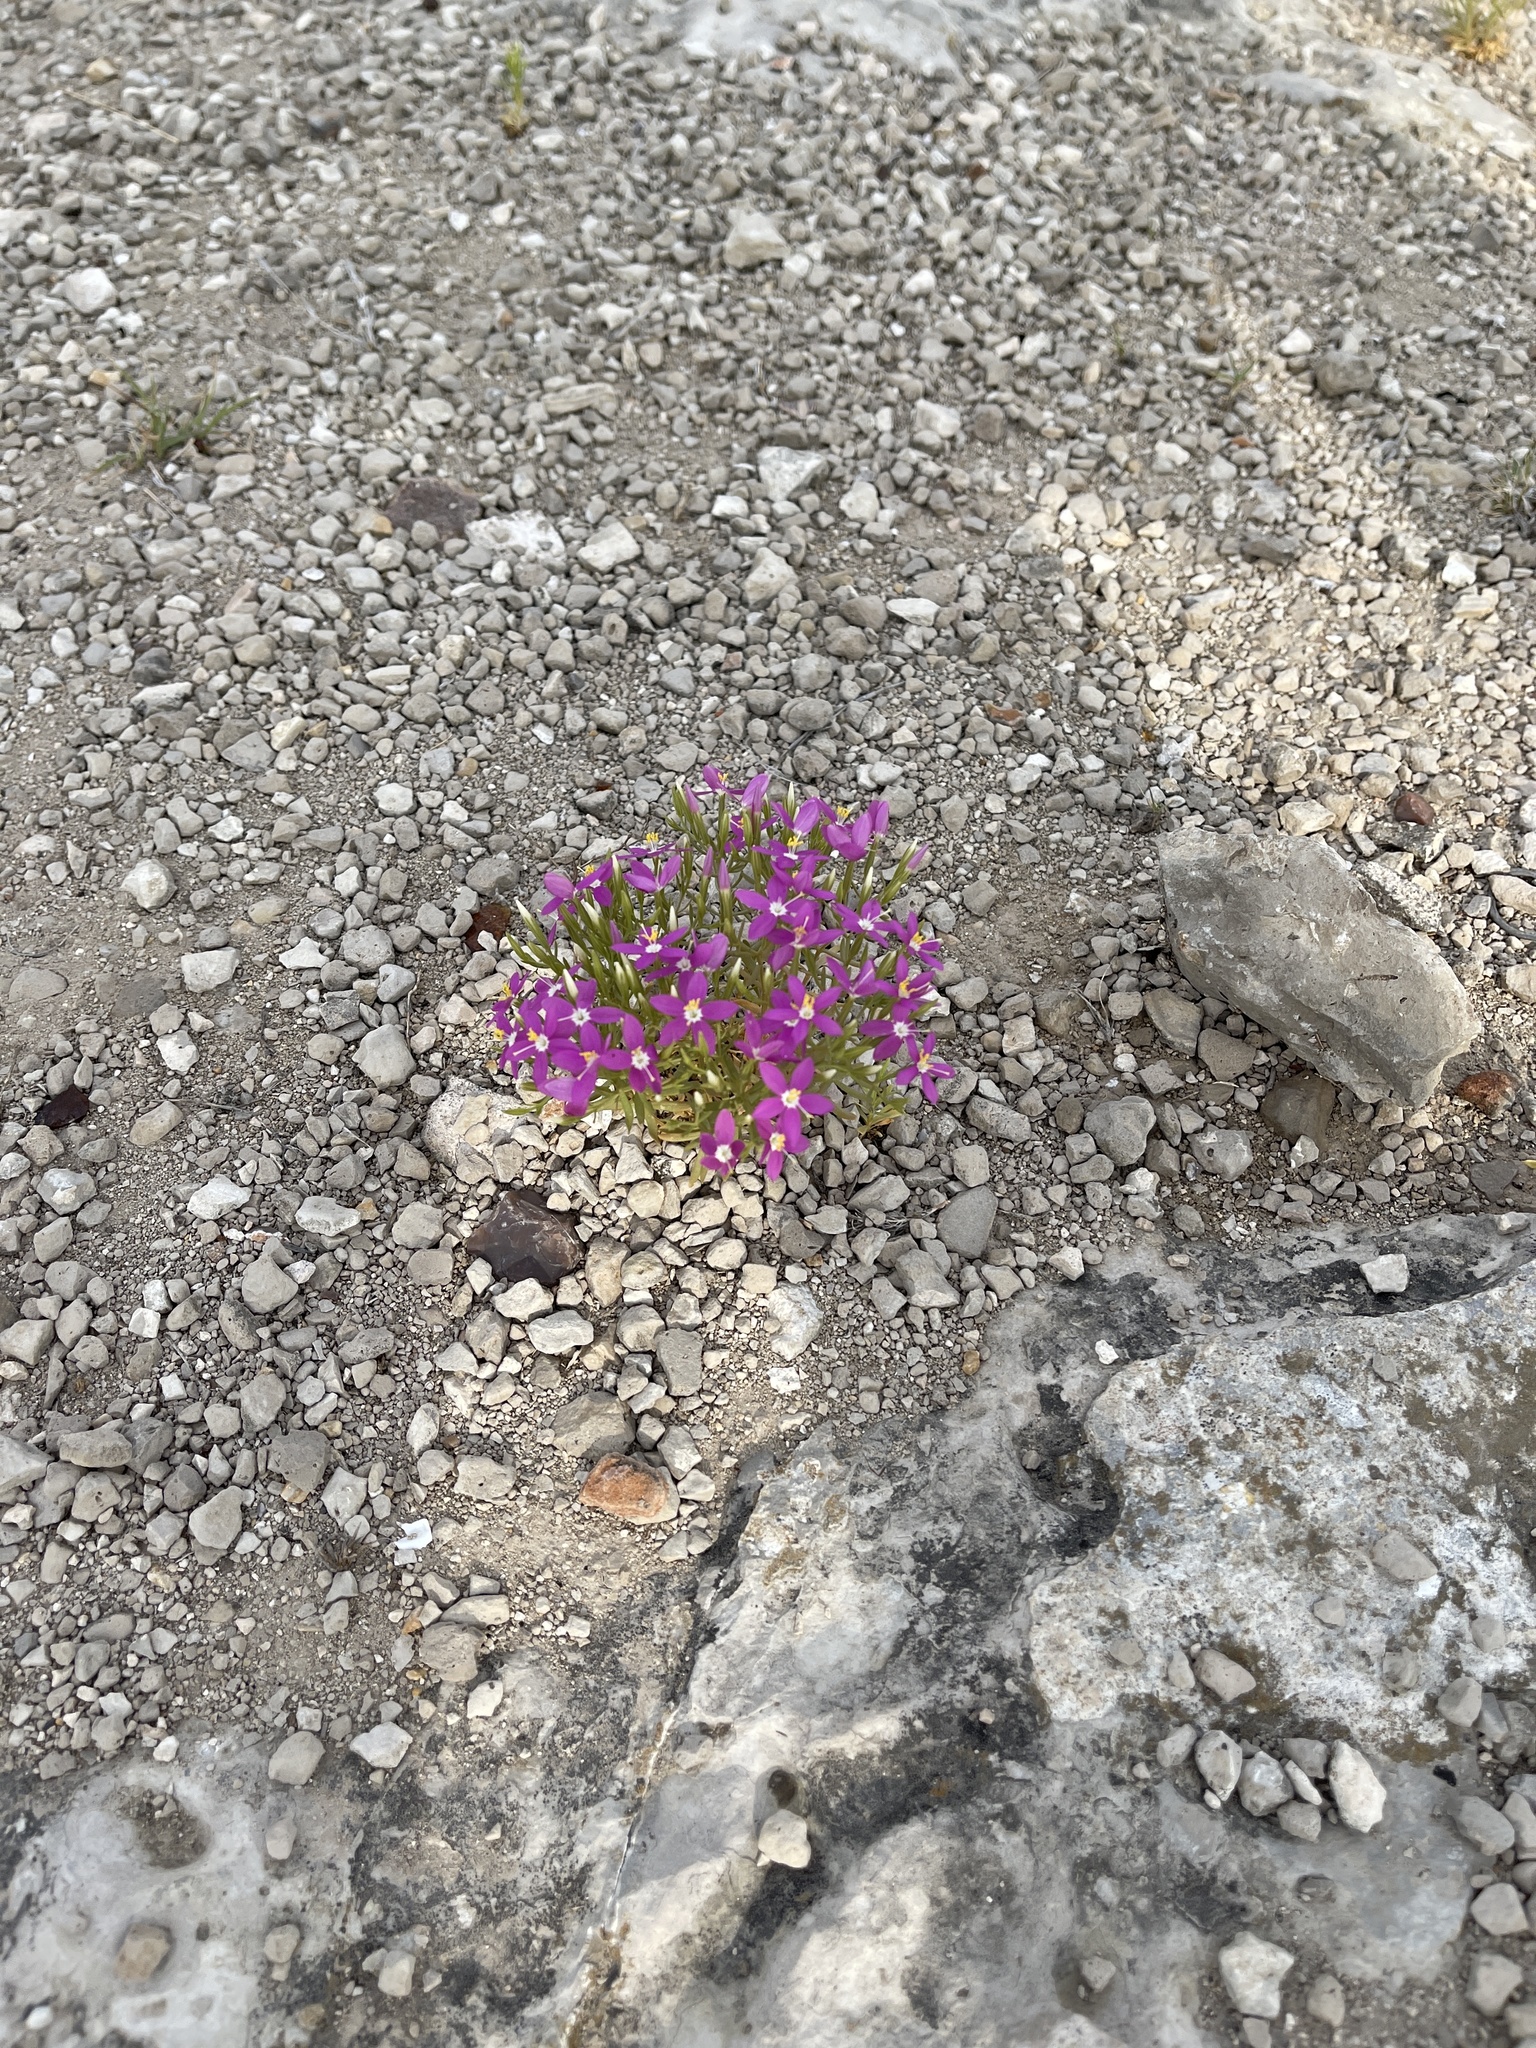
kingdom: Plantae
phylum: Tracheophyta
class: Magnoliopsida
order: Gentianales
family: Gentianaceae
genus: Zeltnera
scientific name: Zeltnera beyrichii
